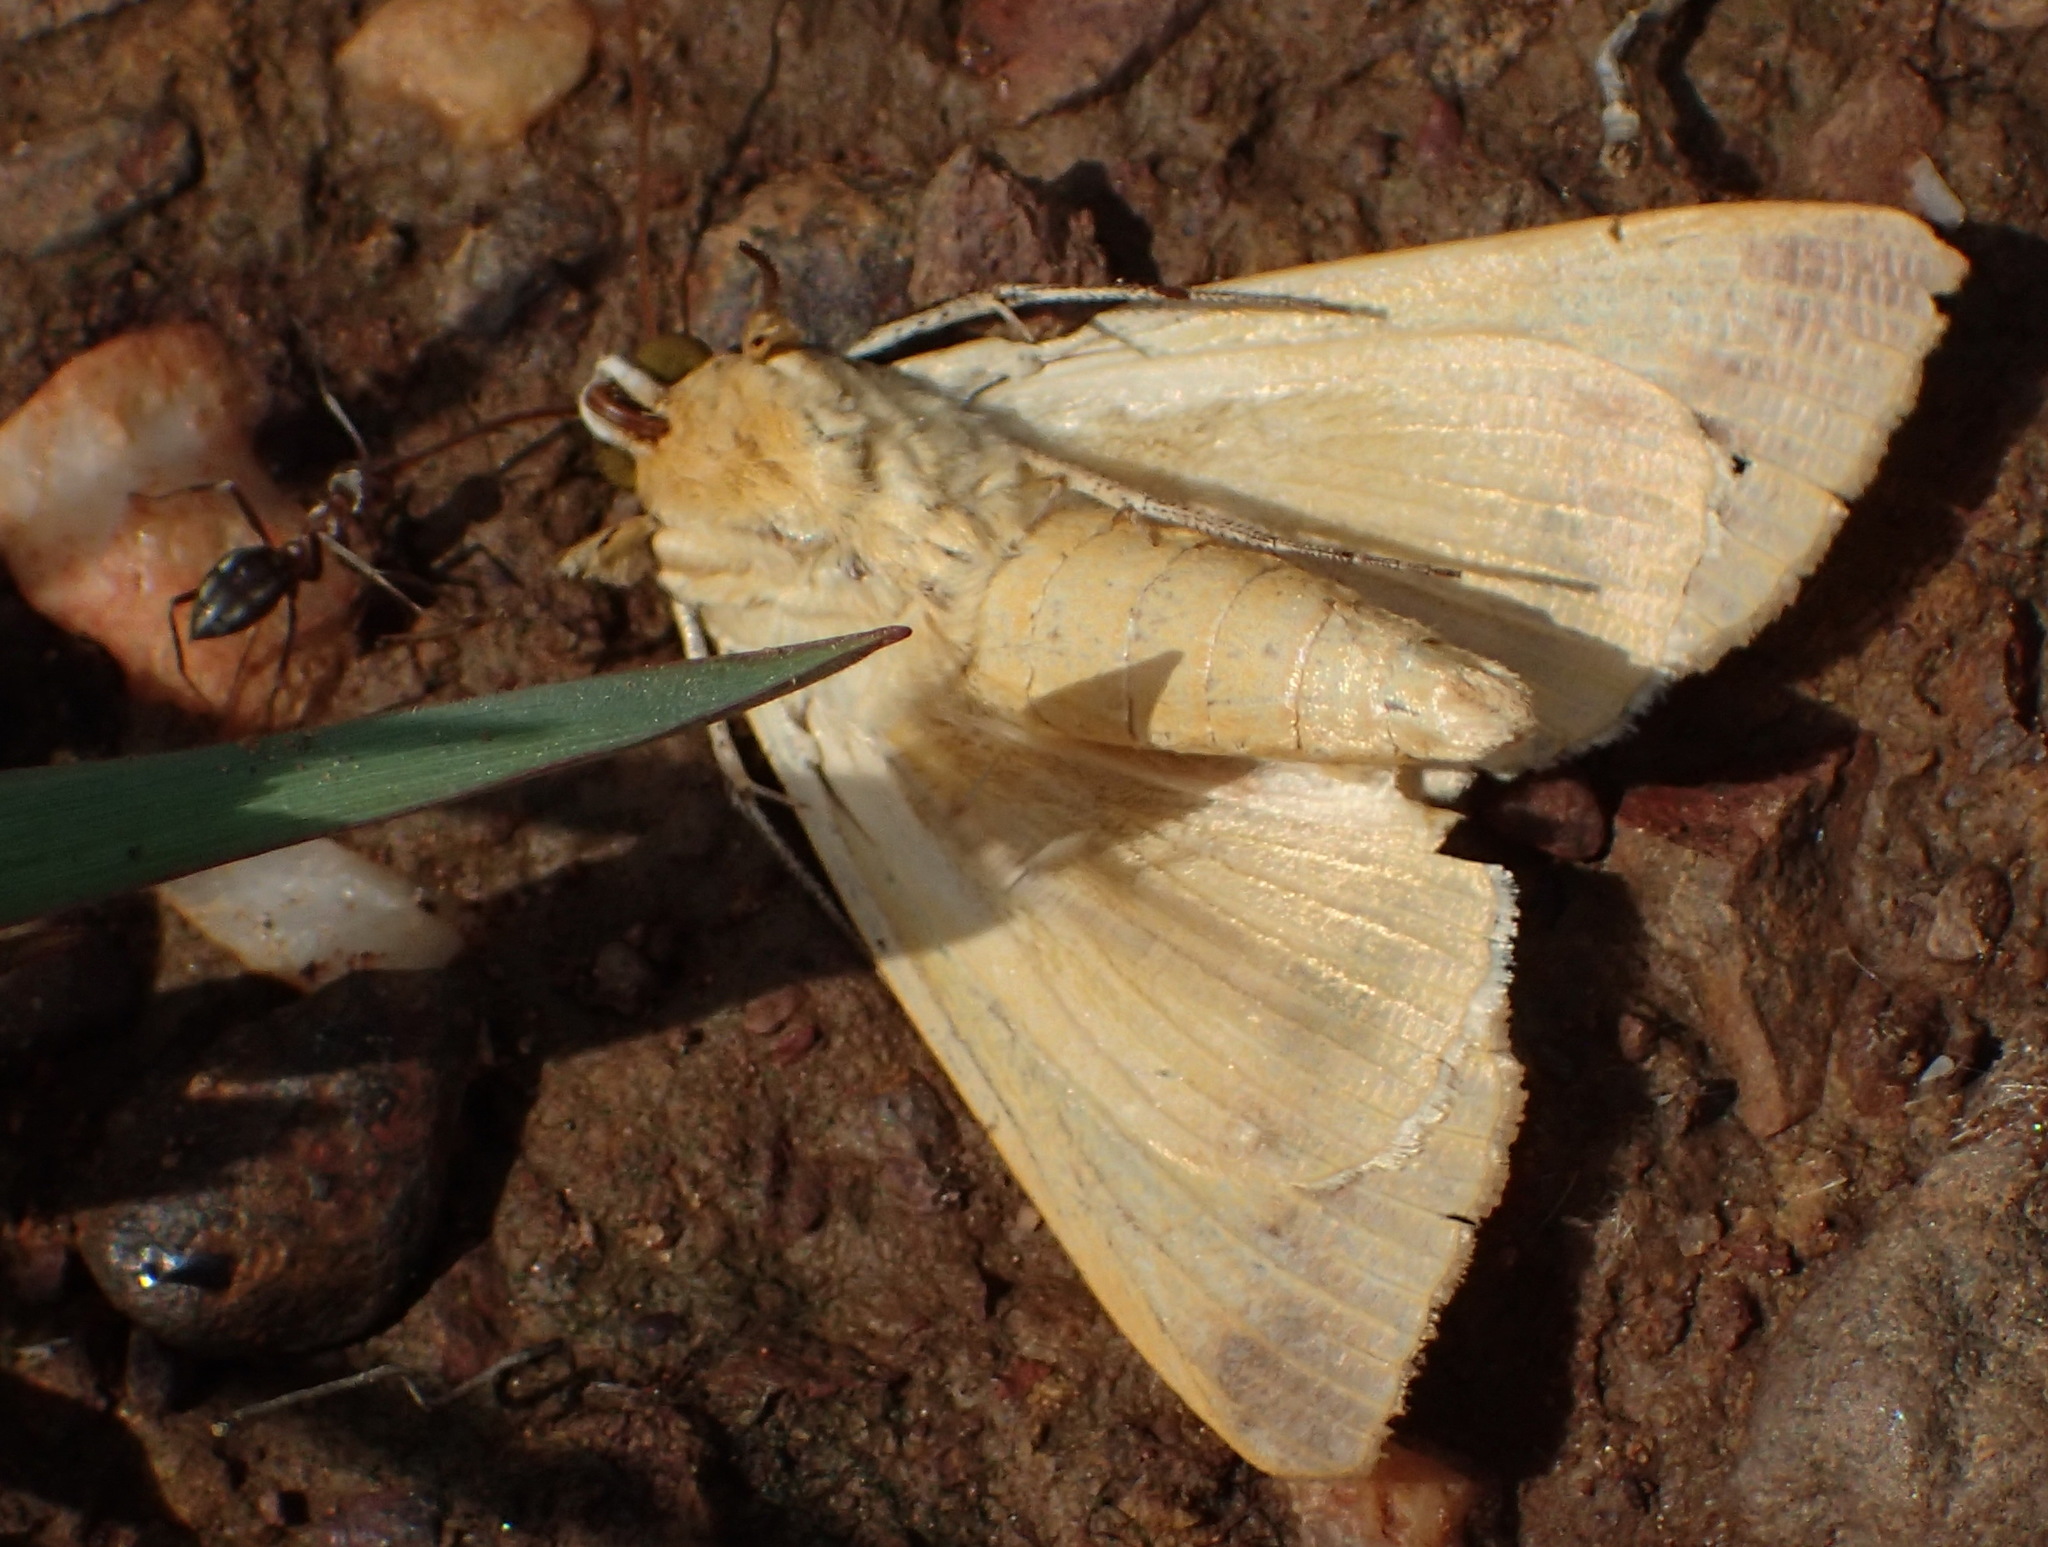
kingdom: Animalia
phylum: Arthropoda
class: Insecta
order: Hymenoptera
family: Formicidae
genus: Anoplolepis
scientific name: Anoplolepis custodiens
